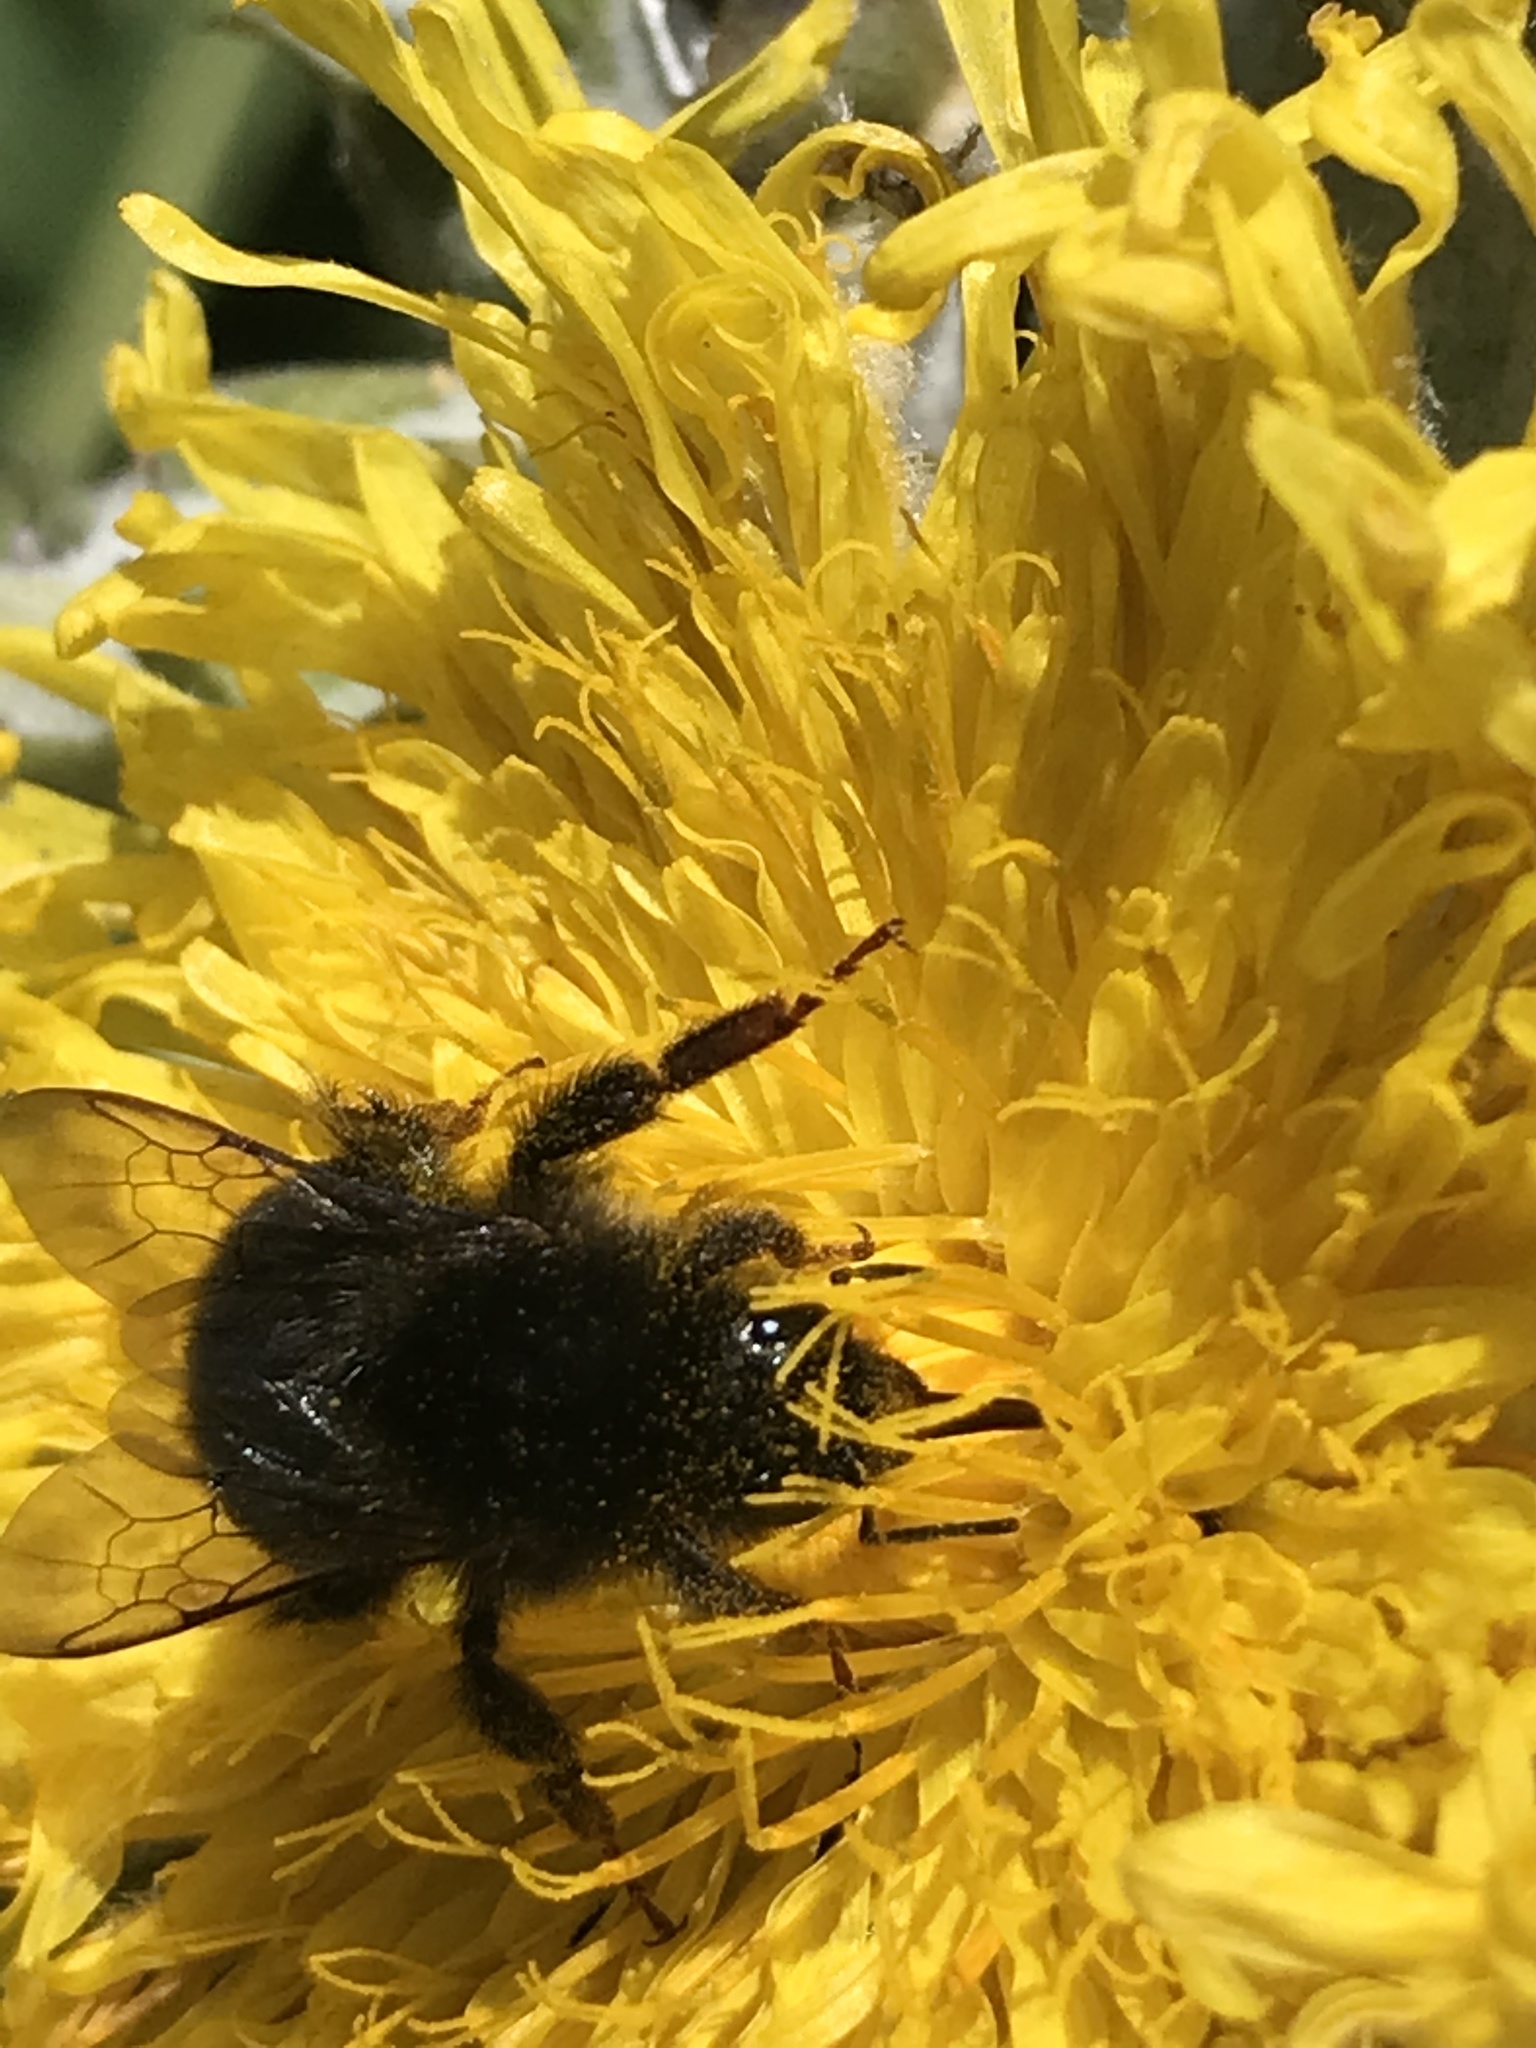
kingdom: Animalia
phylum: Arthropoda
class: Insecta
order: Hymenoptera
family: Apidae
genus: Bombus
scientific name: Bombus terrestris
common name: Buff-tailed bumblebee
